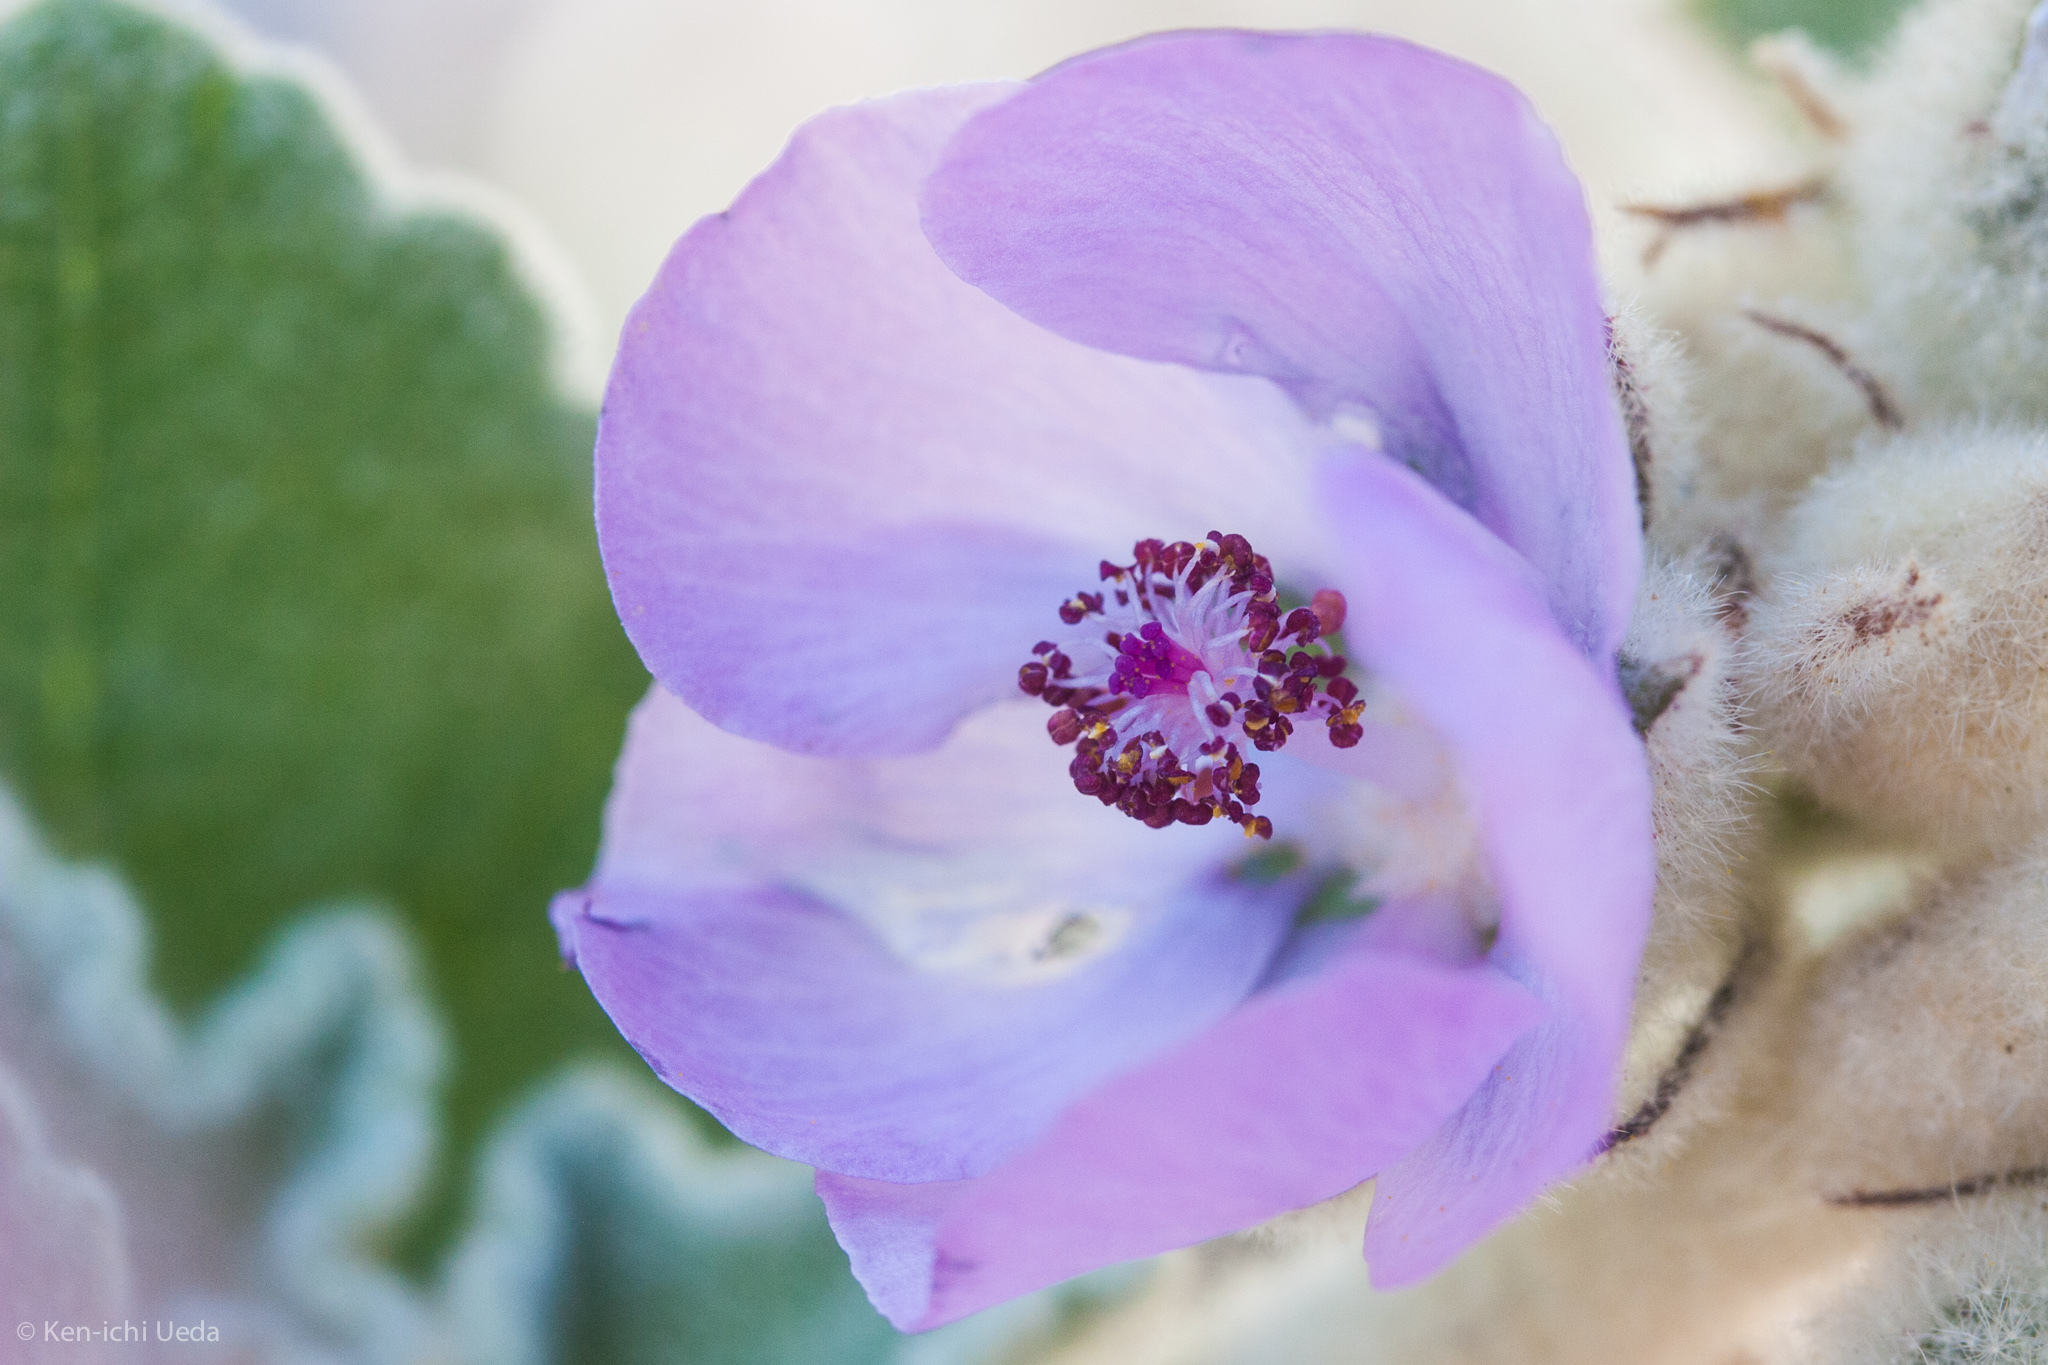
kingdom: Plantae
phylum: Tracheophyta
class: Magnoliopsida
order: Malvales
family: Malvaceae
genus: Malacothamnus
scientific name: Malacothamnus fremontii
